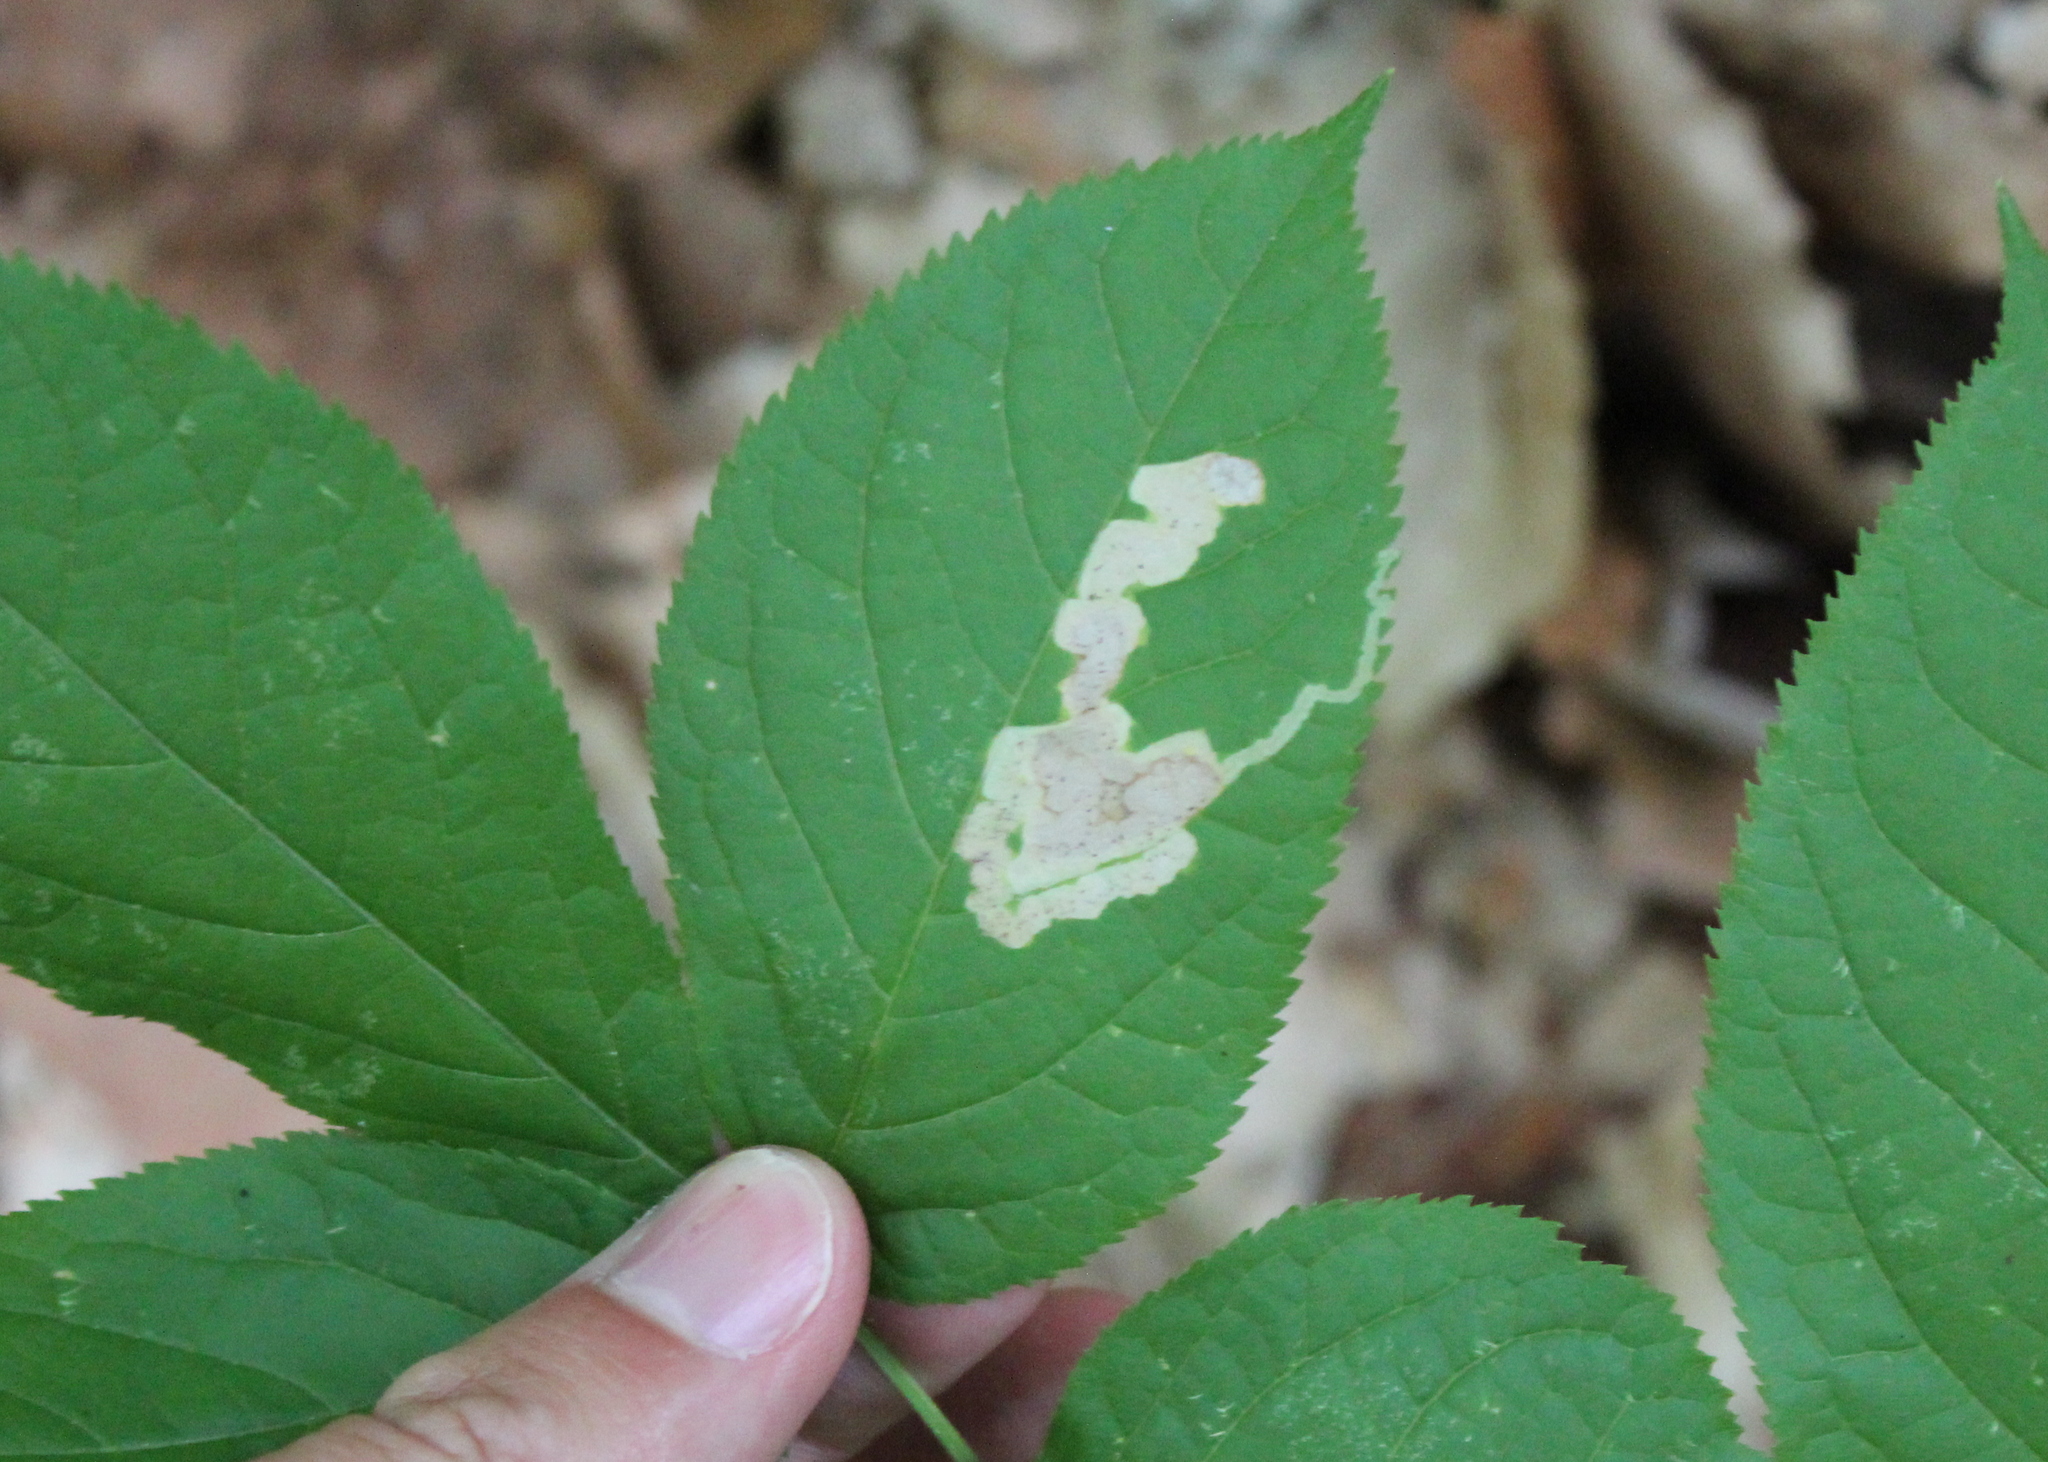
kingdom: Animalia
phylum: Arthropoda
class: Insecta
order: Diptera
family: Agromyzidae
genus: Phytomyza
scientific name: Phytomyza aralivora
